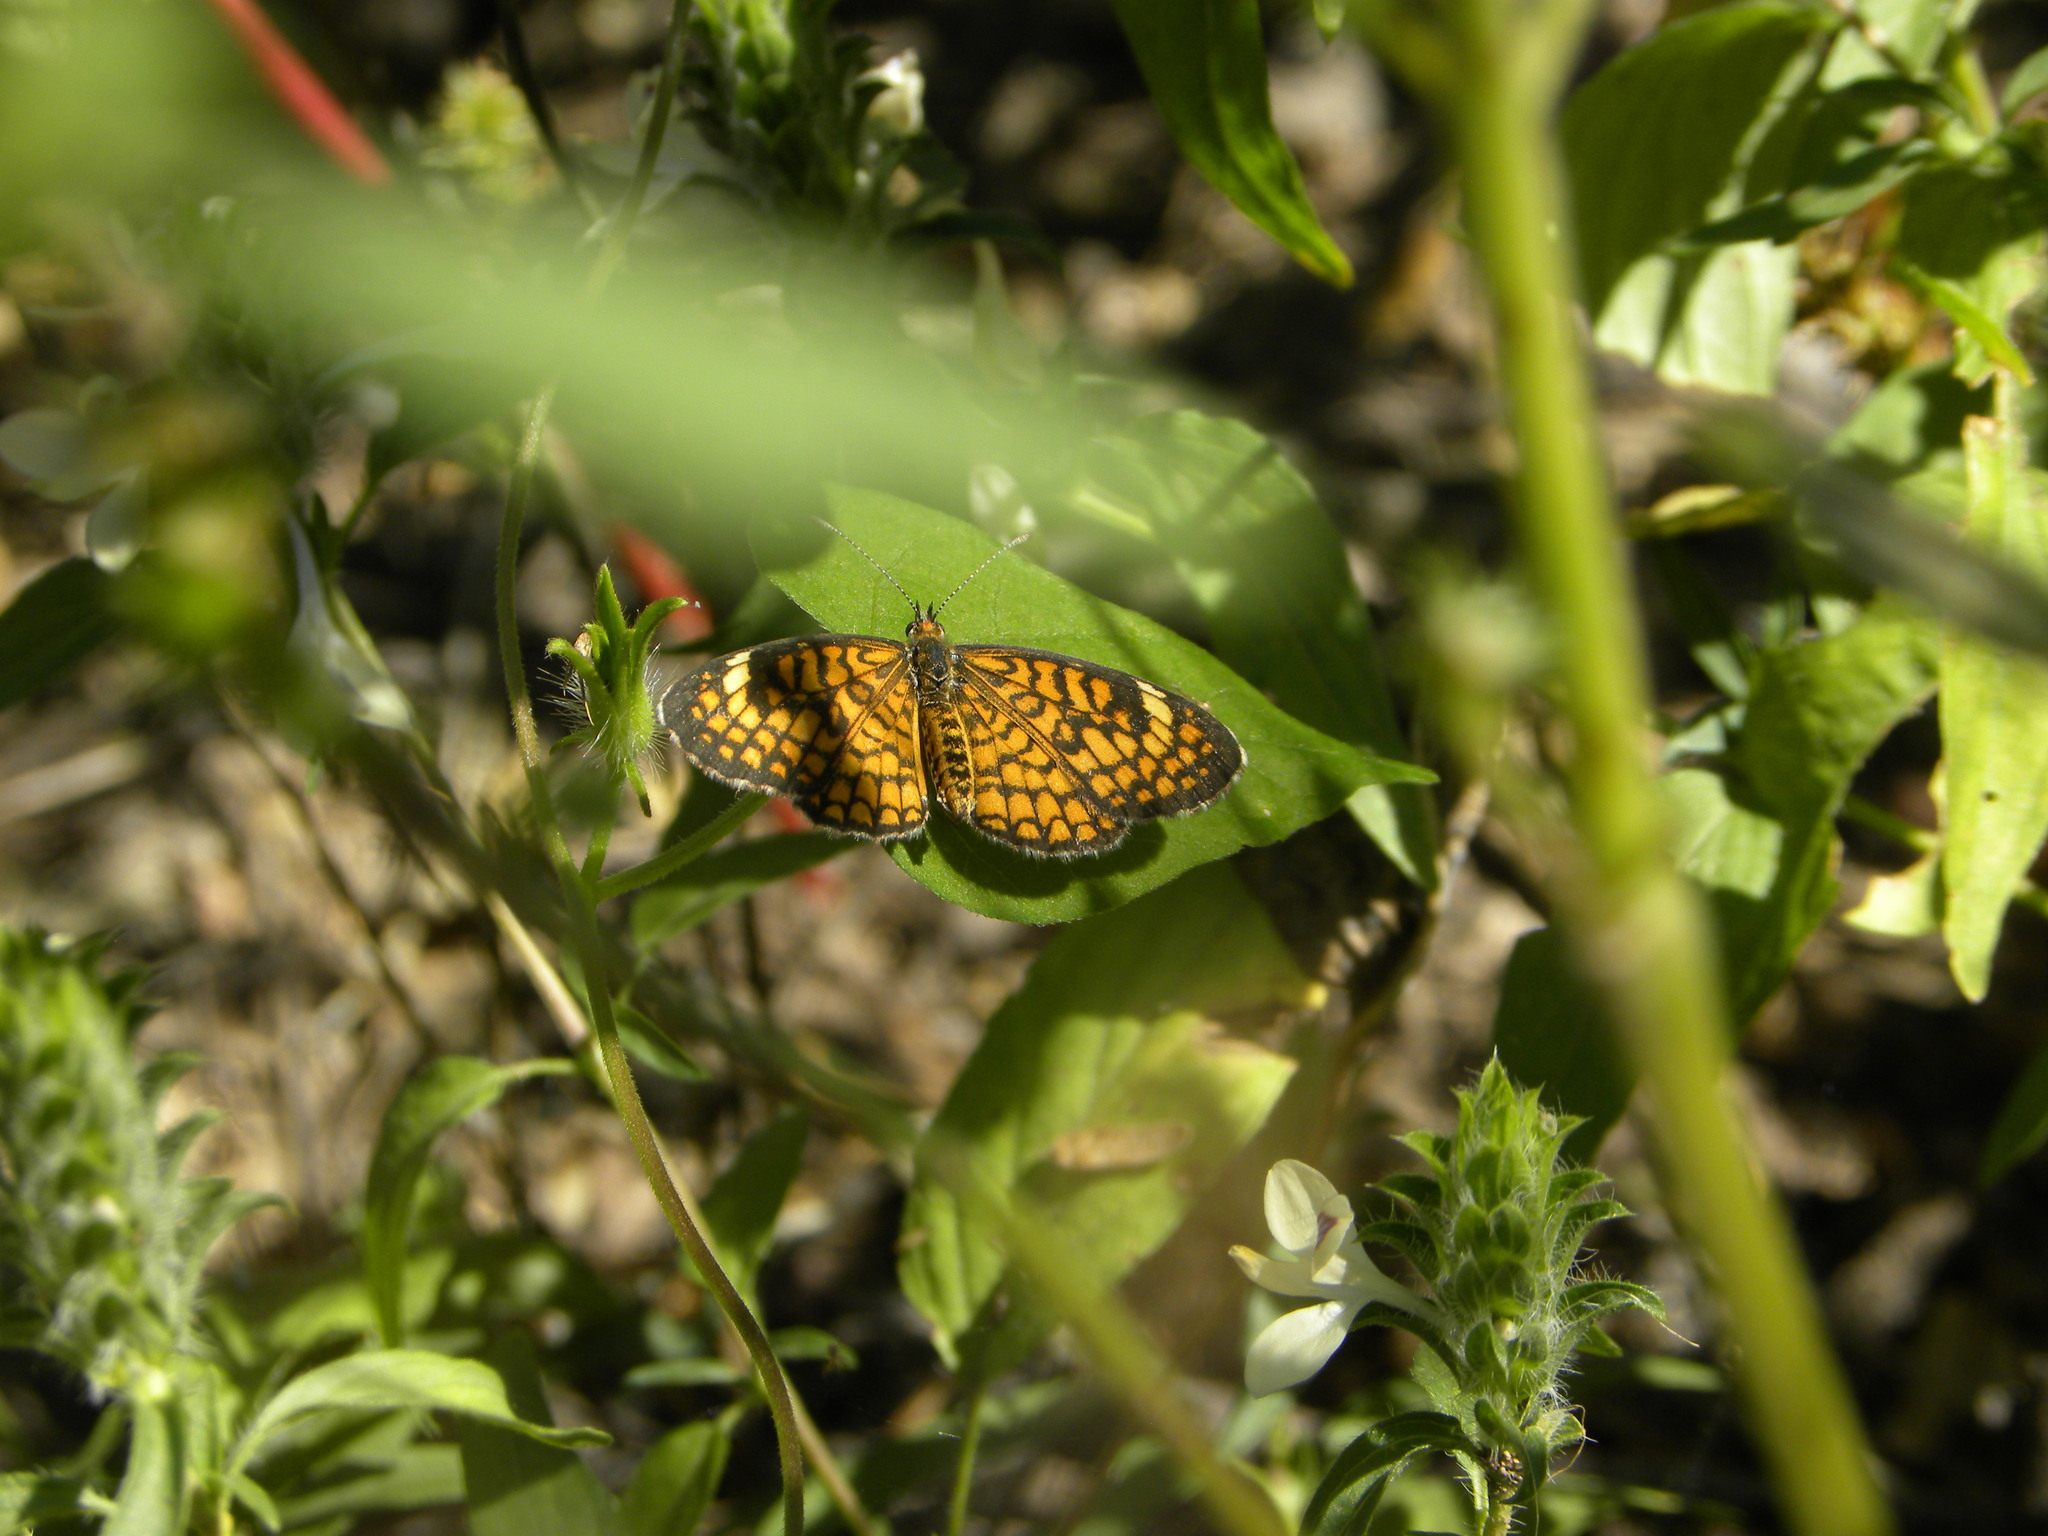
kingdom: Animalia
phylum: Arthropoda
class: Insecta
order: Lepidoptera
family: Nymphalidae
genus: Dymasia
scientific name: Dymasia dymas
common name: Tiny checkerspot
